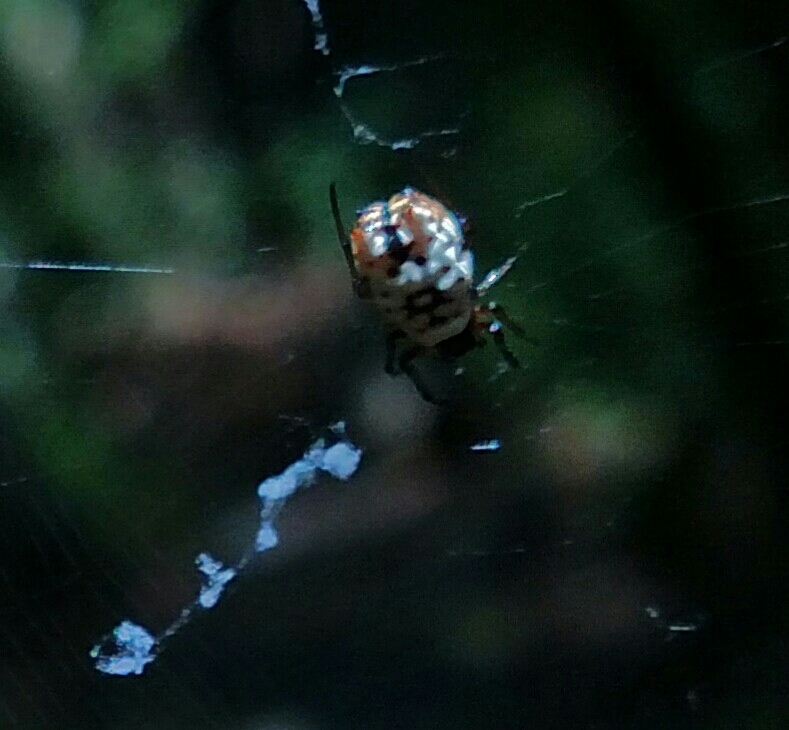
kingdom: Animalia
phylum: Arthropoda
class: Arachnida
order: Araneae
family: Araneidae
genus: Micrathena
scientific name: Micrathena mitrata
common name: Orb weavers
